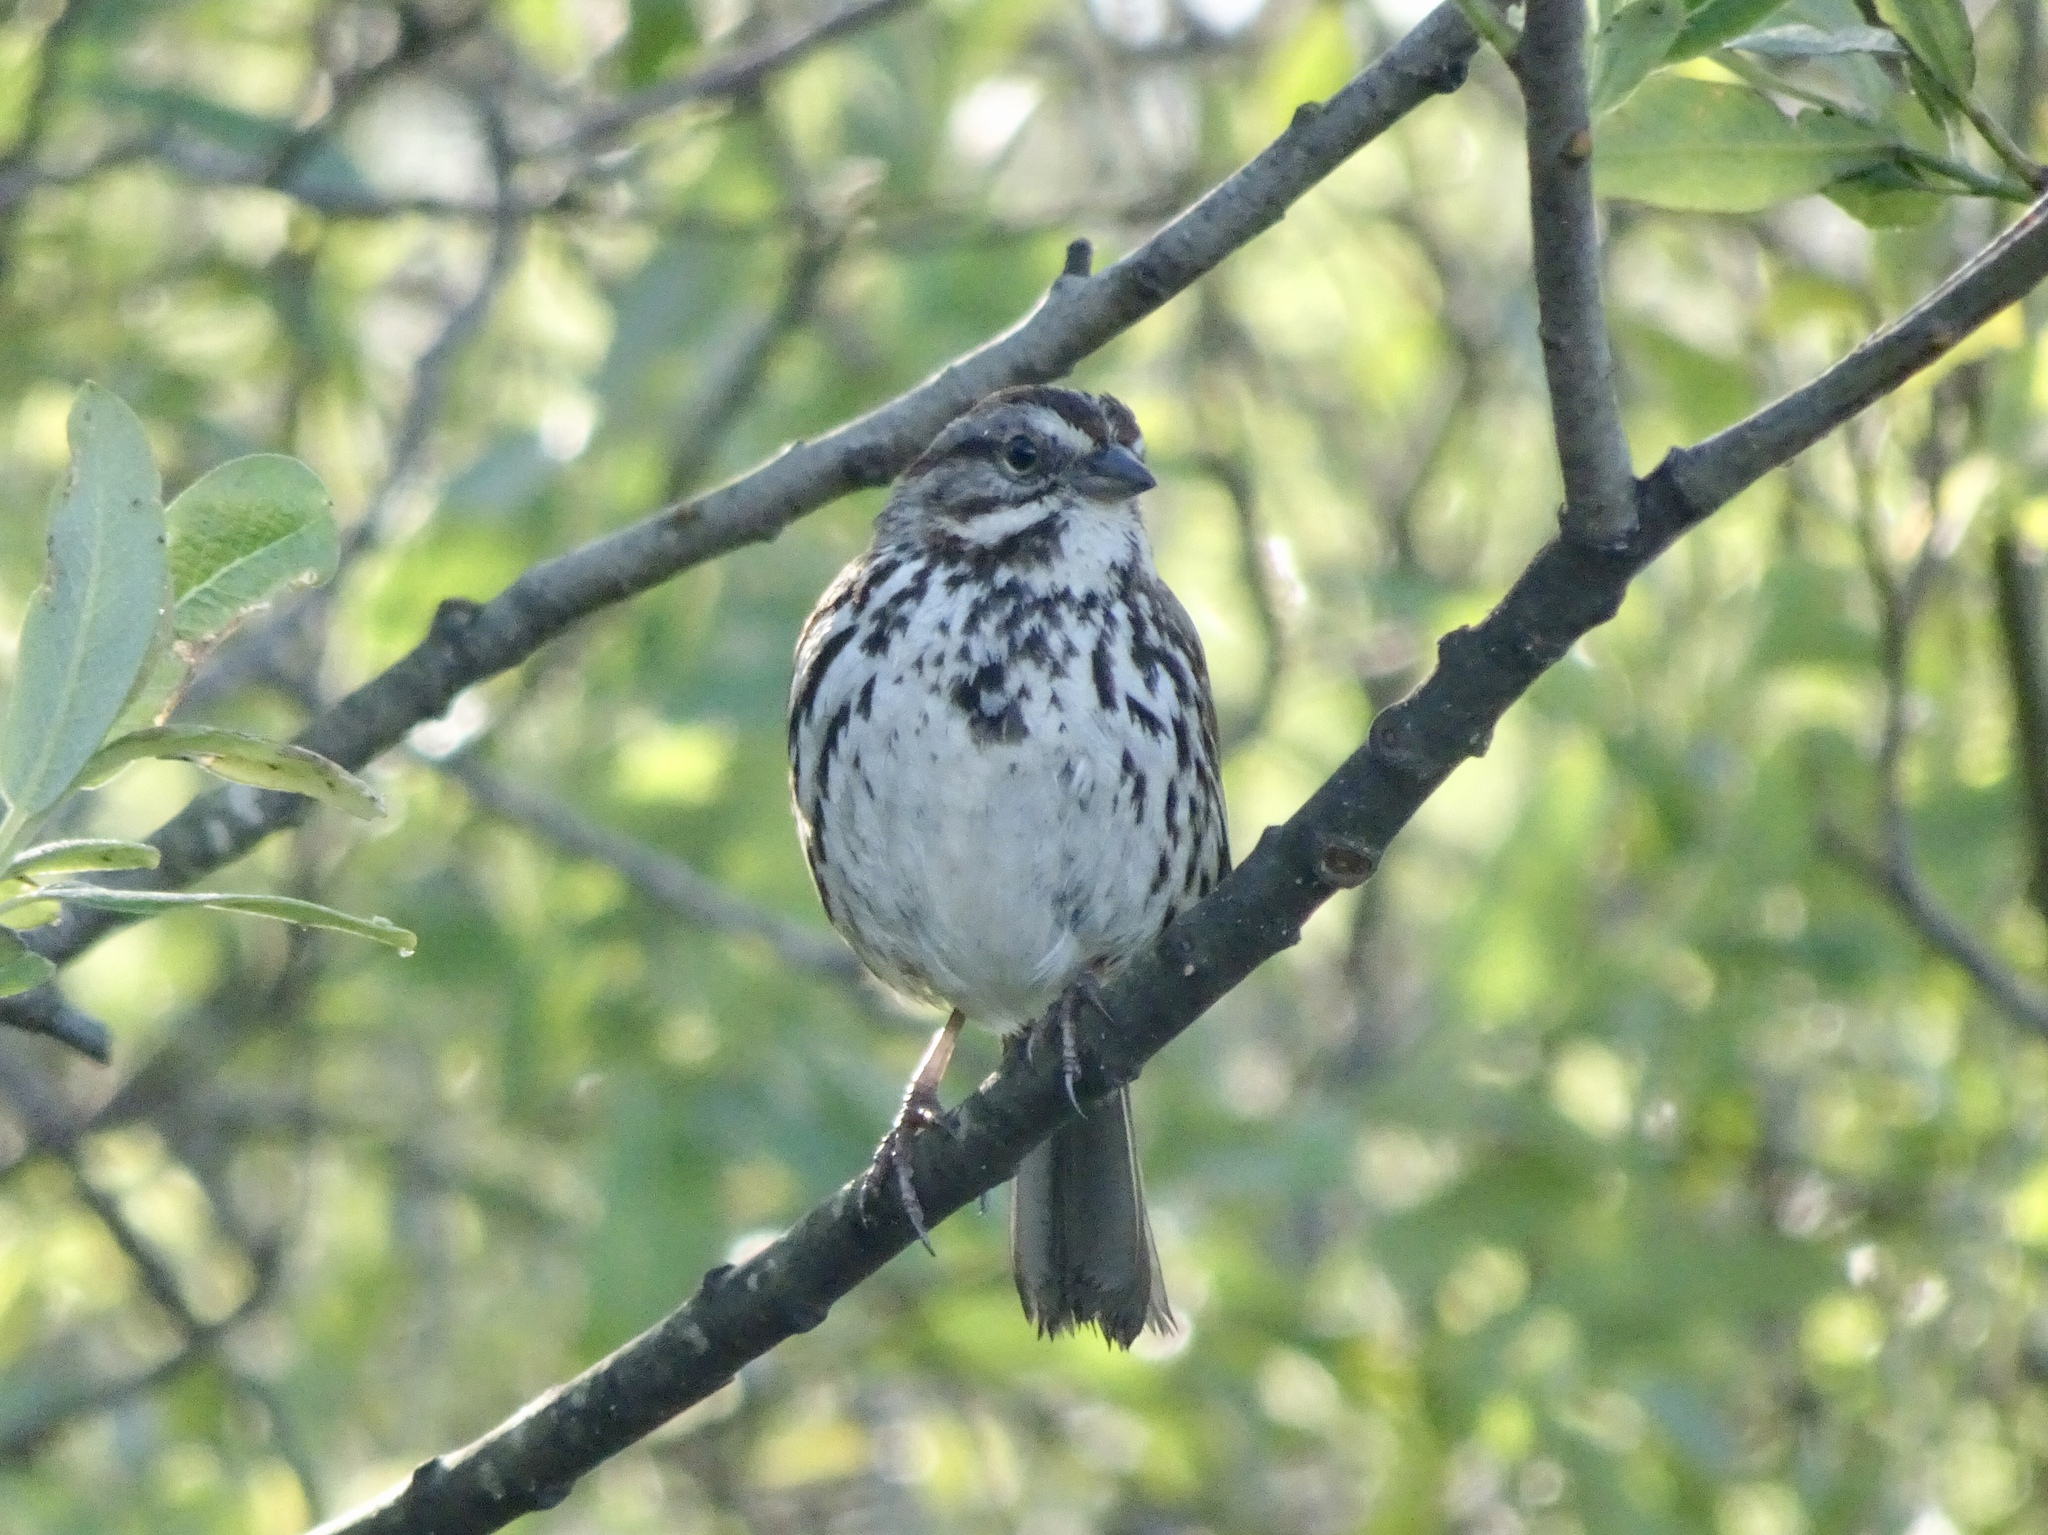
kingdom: Animalia
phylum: Chordata
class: Aves
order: Passeriformes
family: Passerellidae
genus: Melospiza
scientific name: Melospiza melodia
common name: Song sparrow
